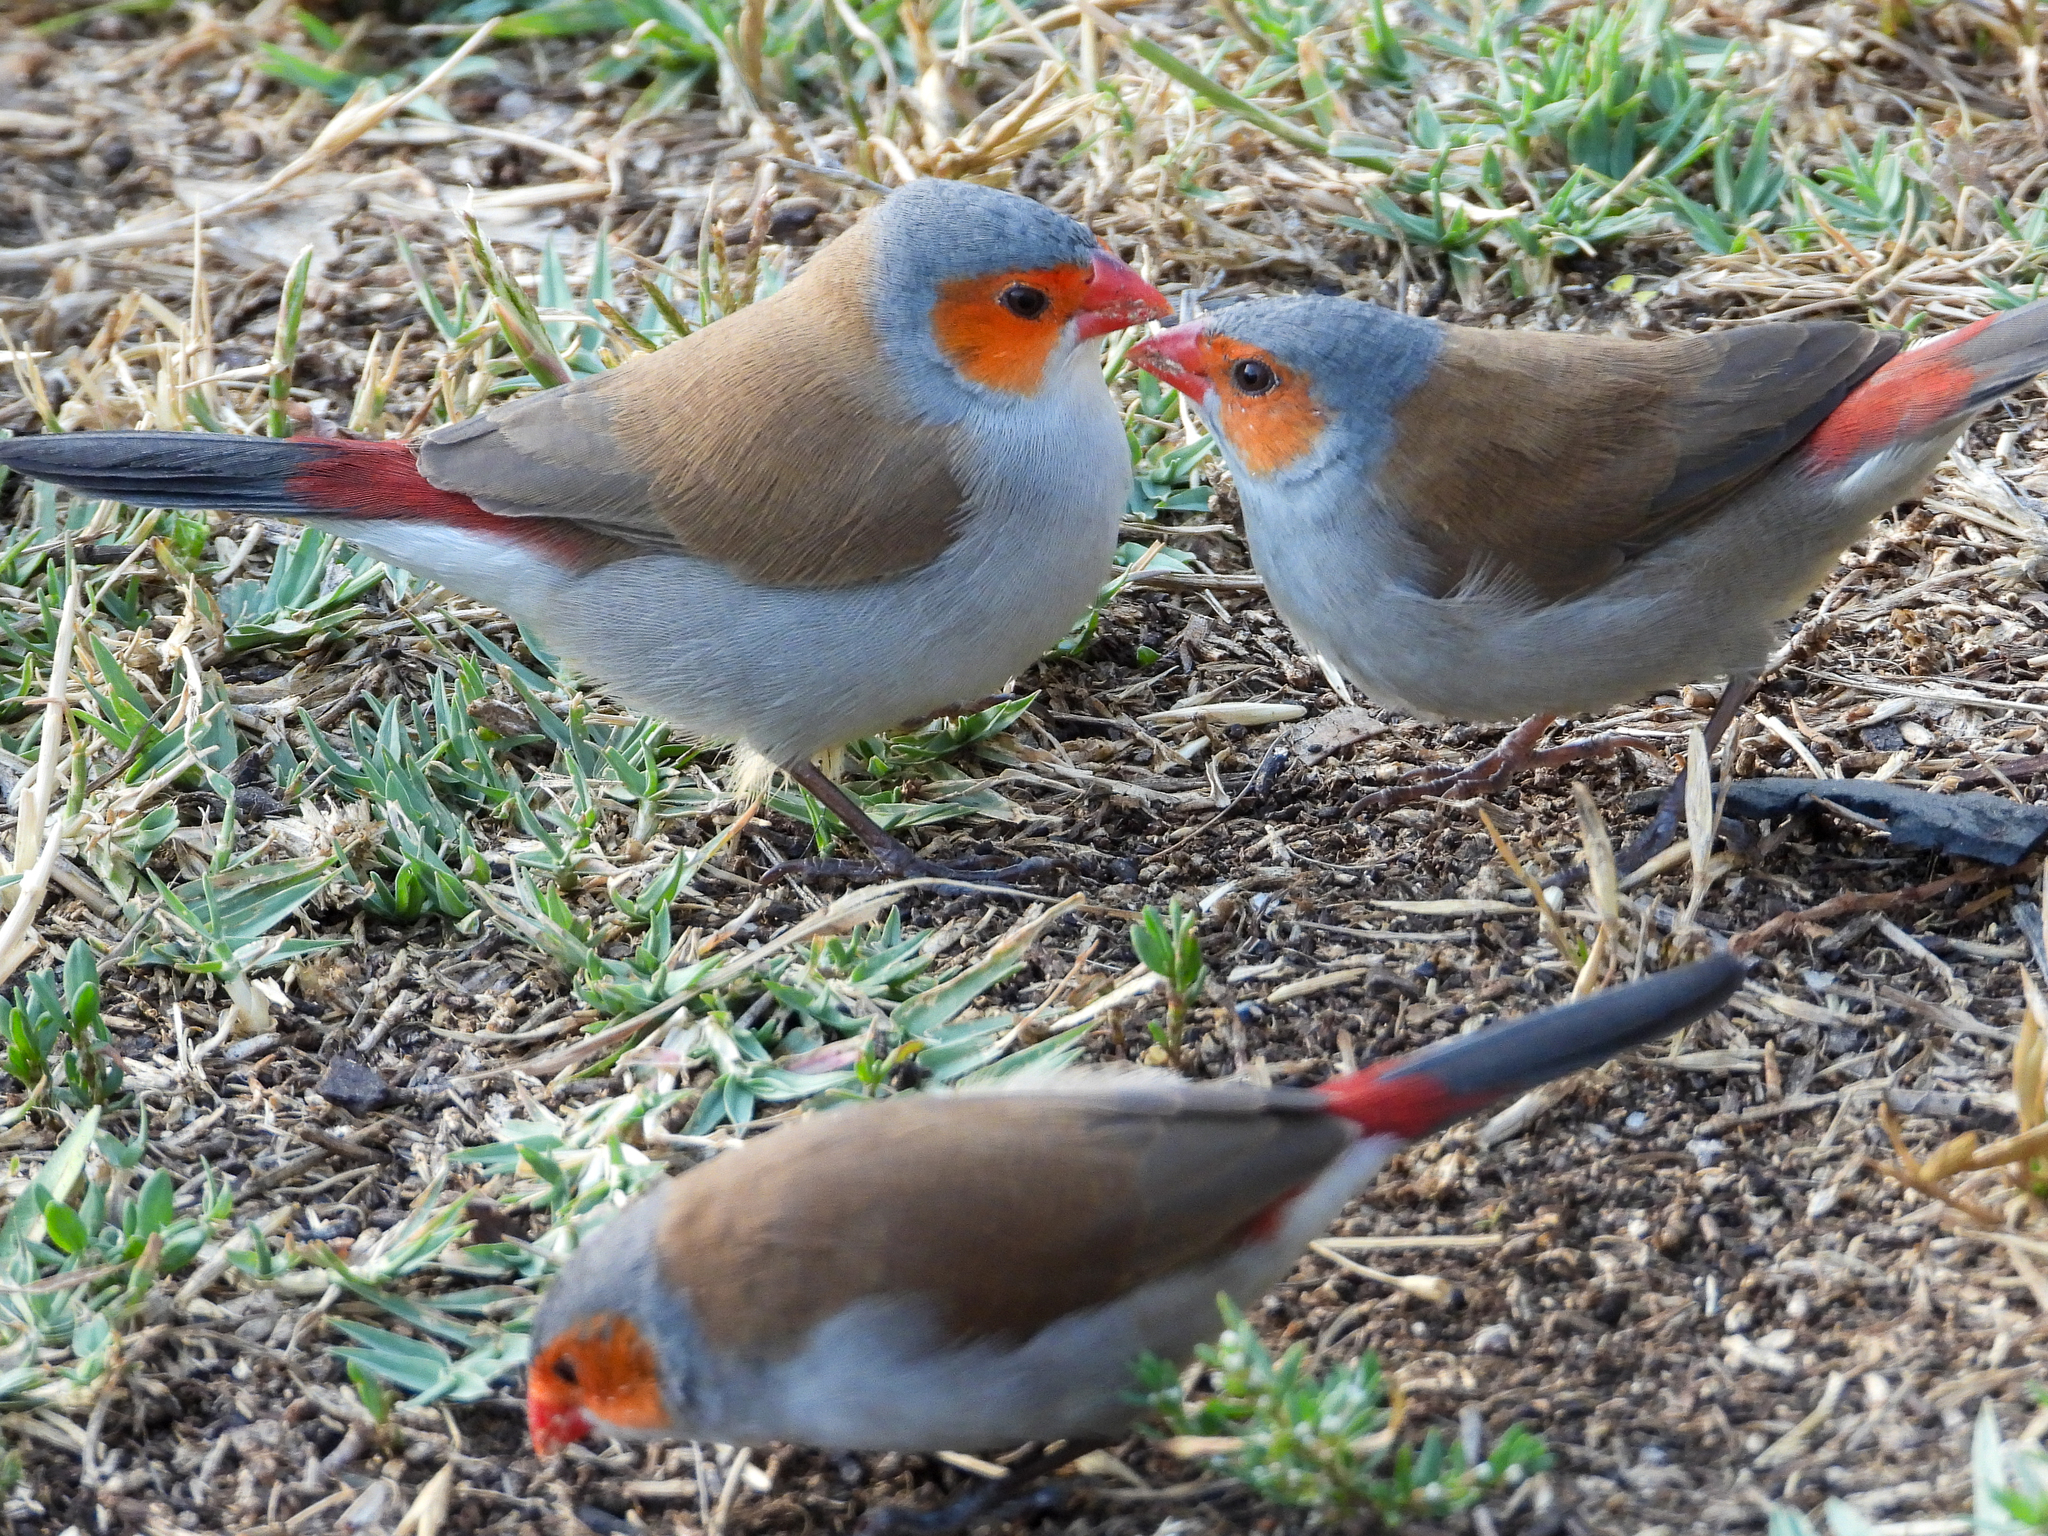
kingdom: Animalia
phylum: Chordata
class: Aves
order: Passeriformes
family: Estrildidae
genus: Estrilda
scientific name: Estrilda melpoda
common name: Orange-cheeked waxbill
